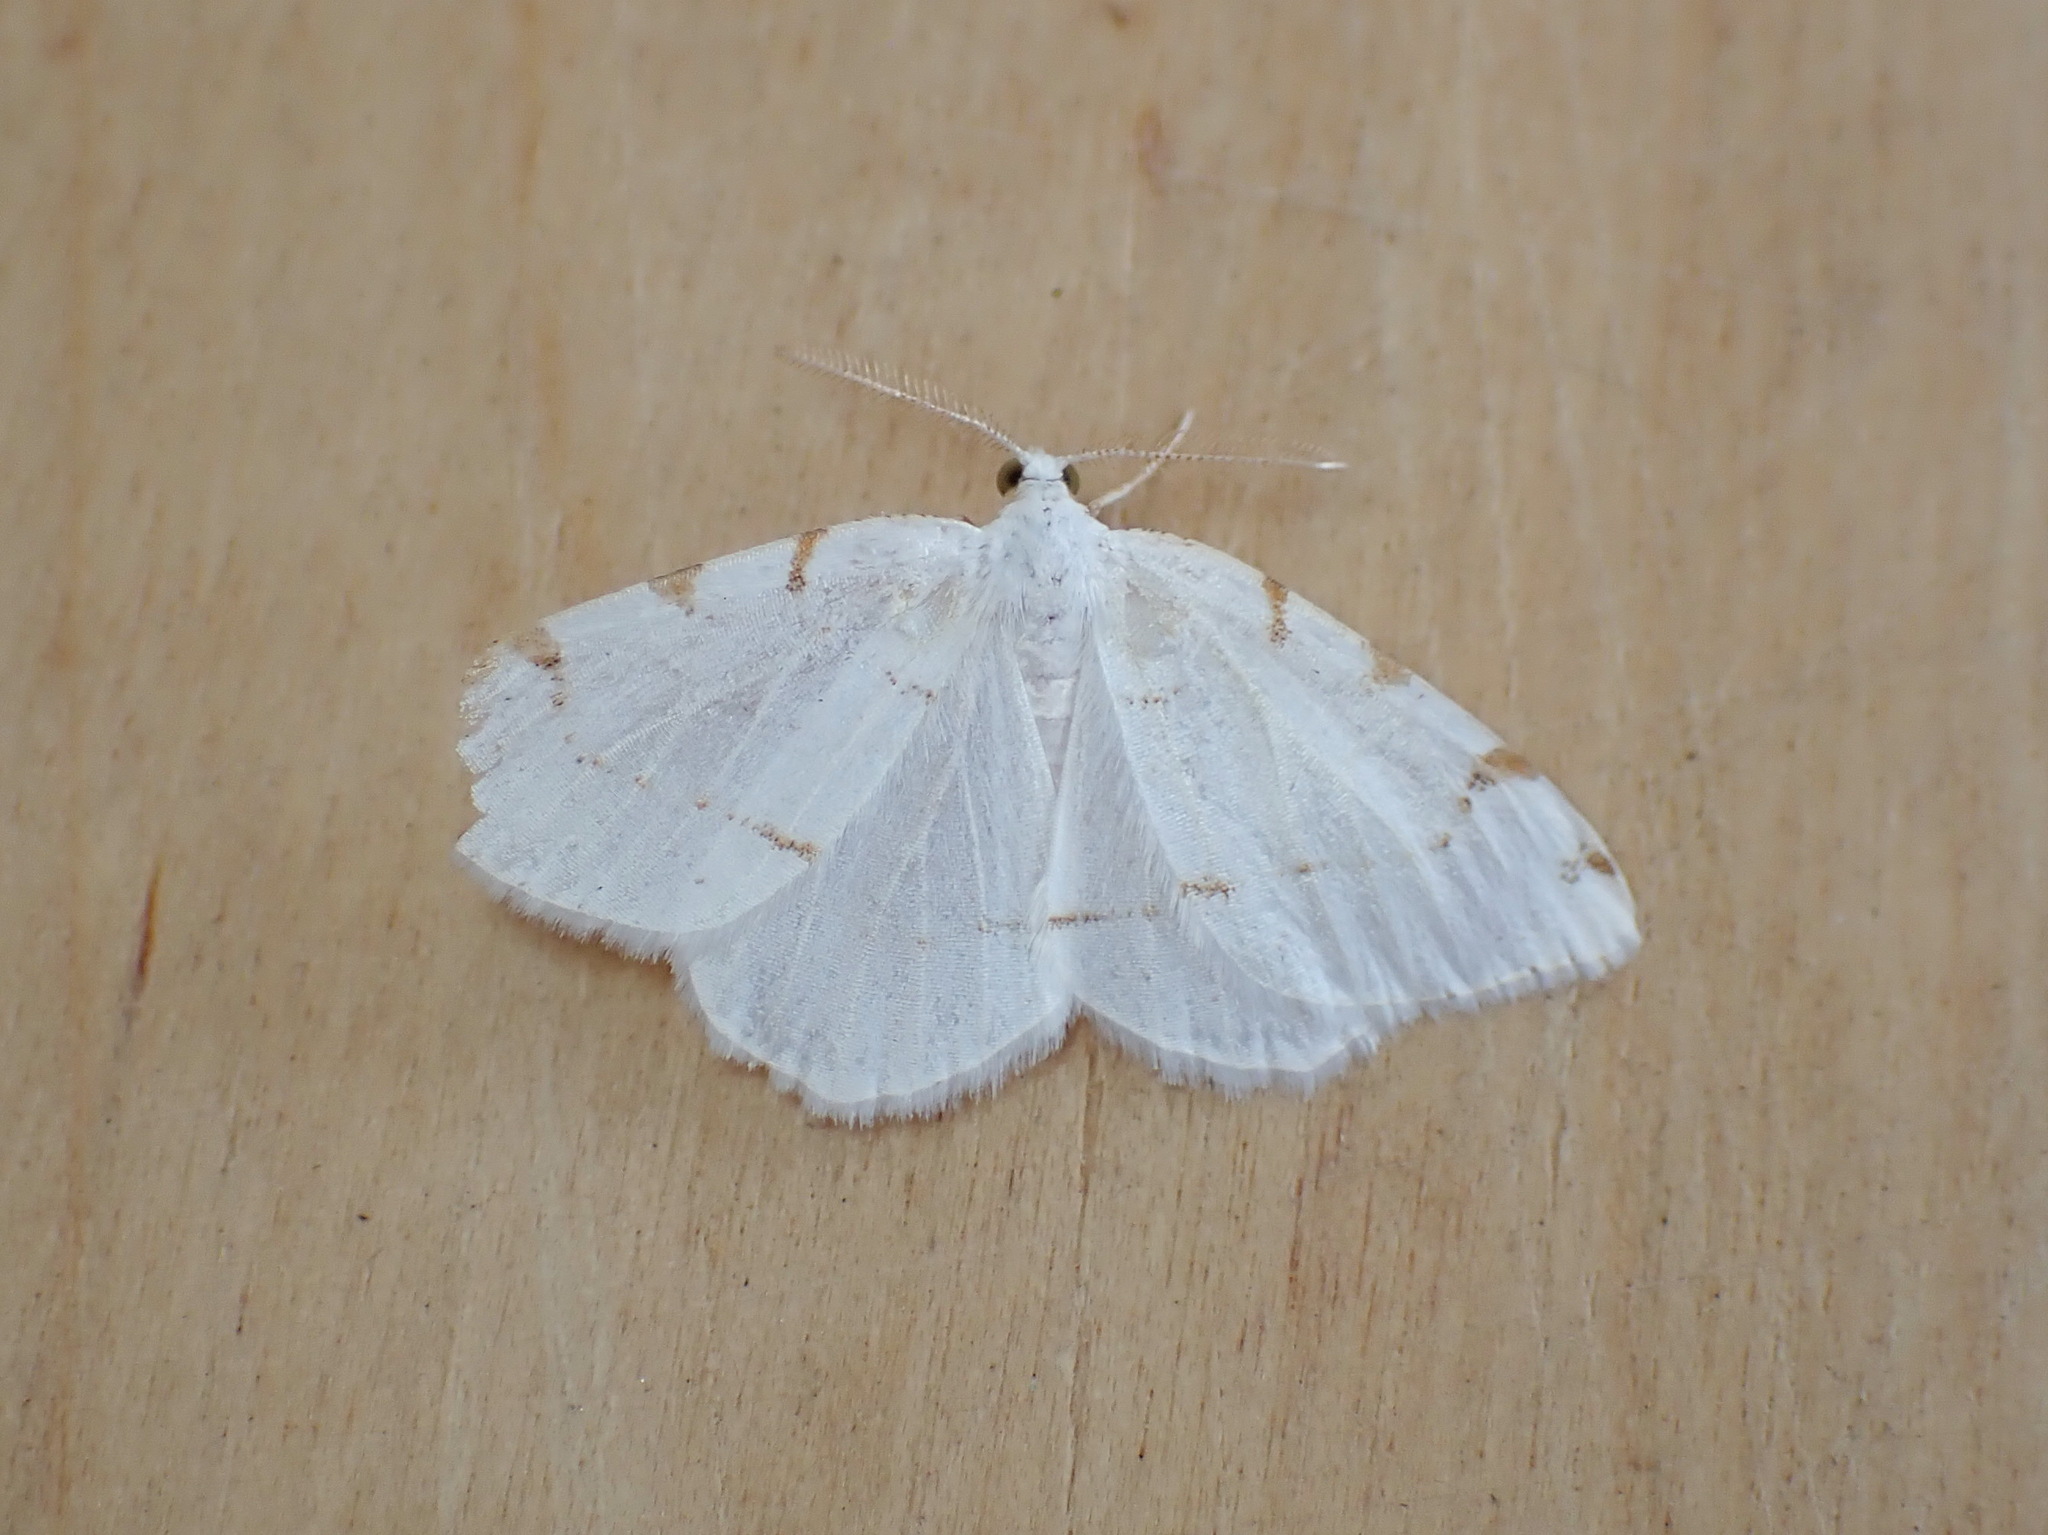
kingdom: Animalia
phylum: Arthropoda
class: Insecta
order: Lepidoptera
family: Geometridae
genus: Macaria
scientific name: Macaria pustularia
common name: Lesser maple spanworm moth
